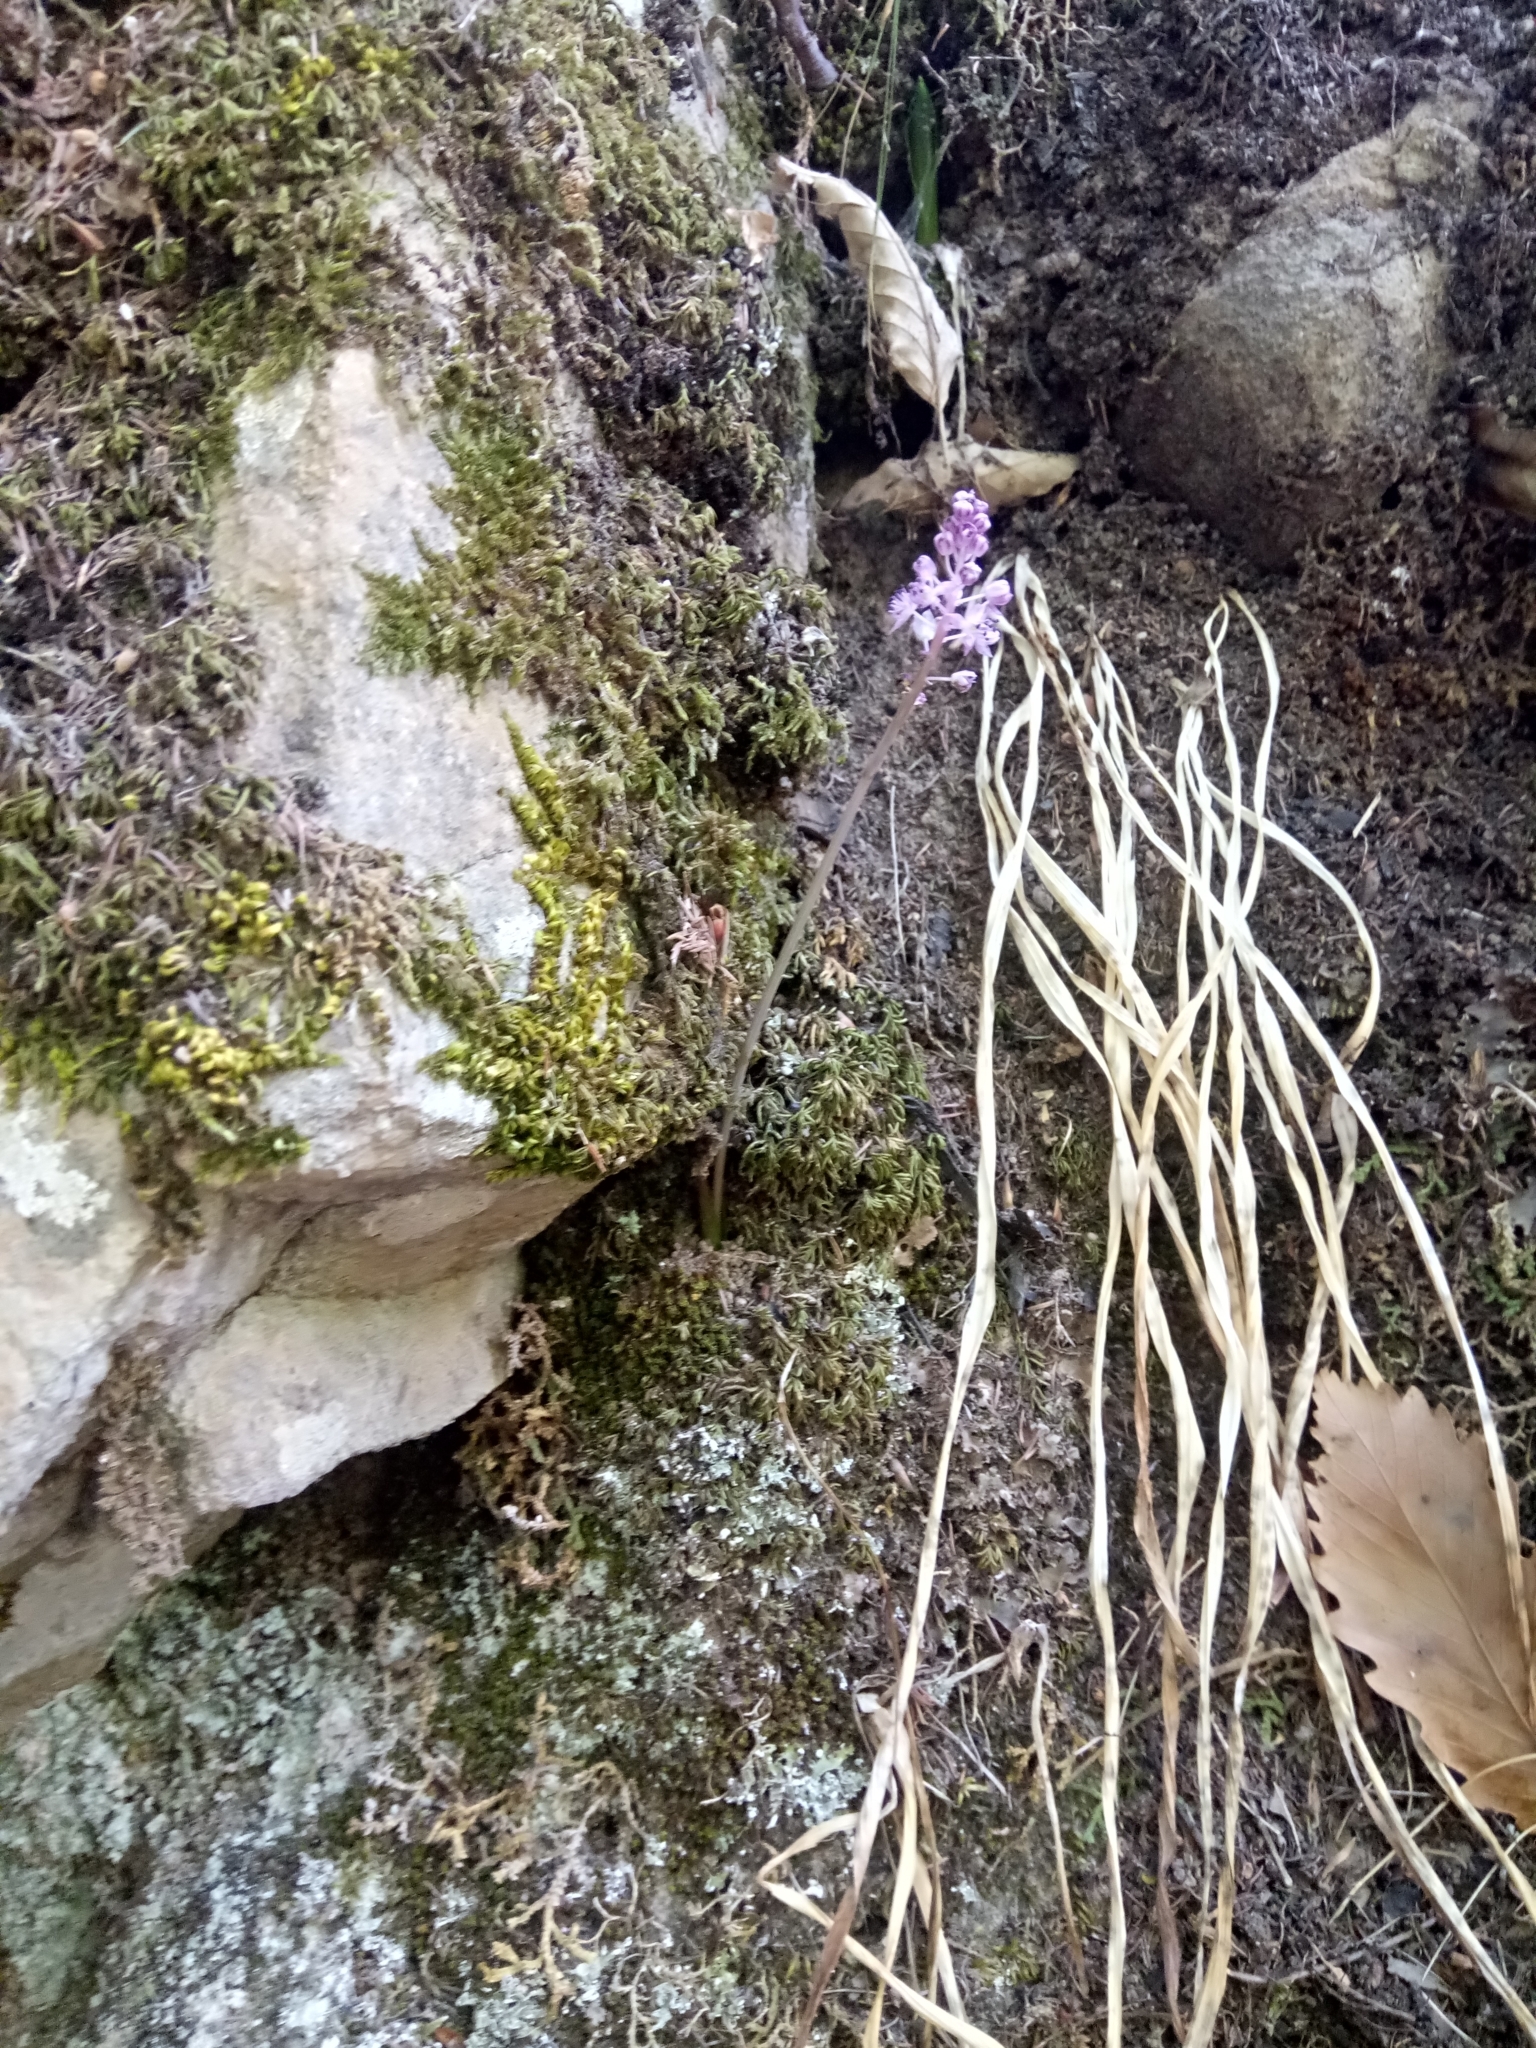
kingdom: Plantae
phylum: Tracheophyta
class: Liliopsida
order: Asparagales
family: Asparagaceae
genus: Barnardia
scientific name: Barnardia numidica
